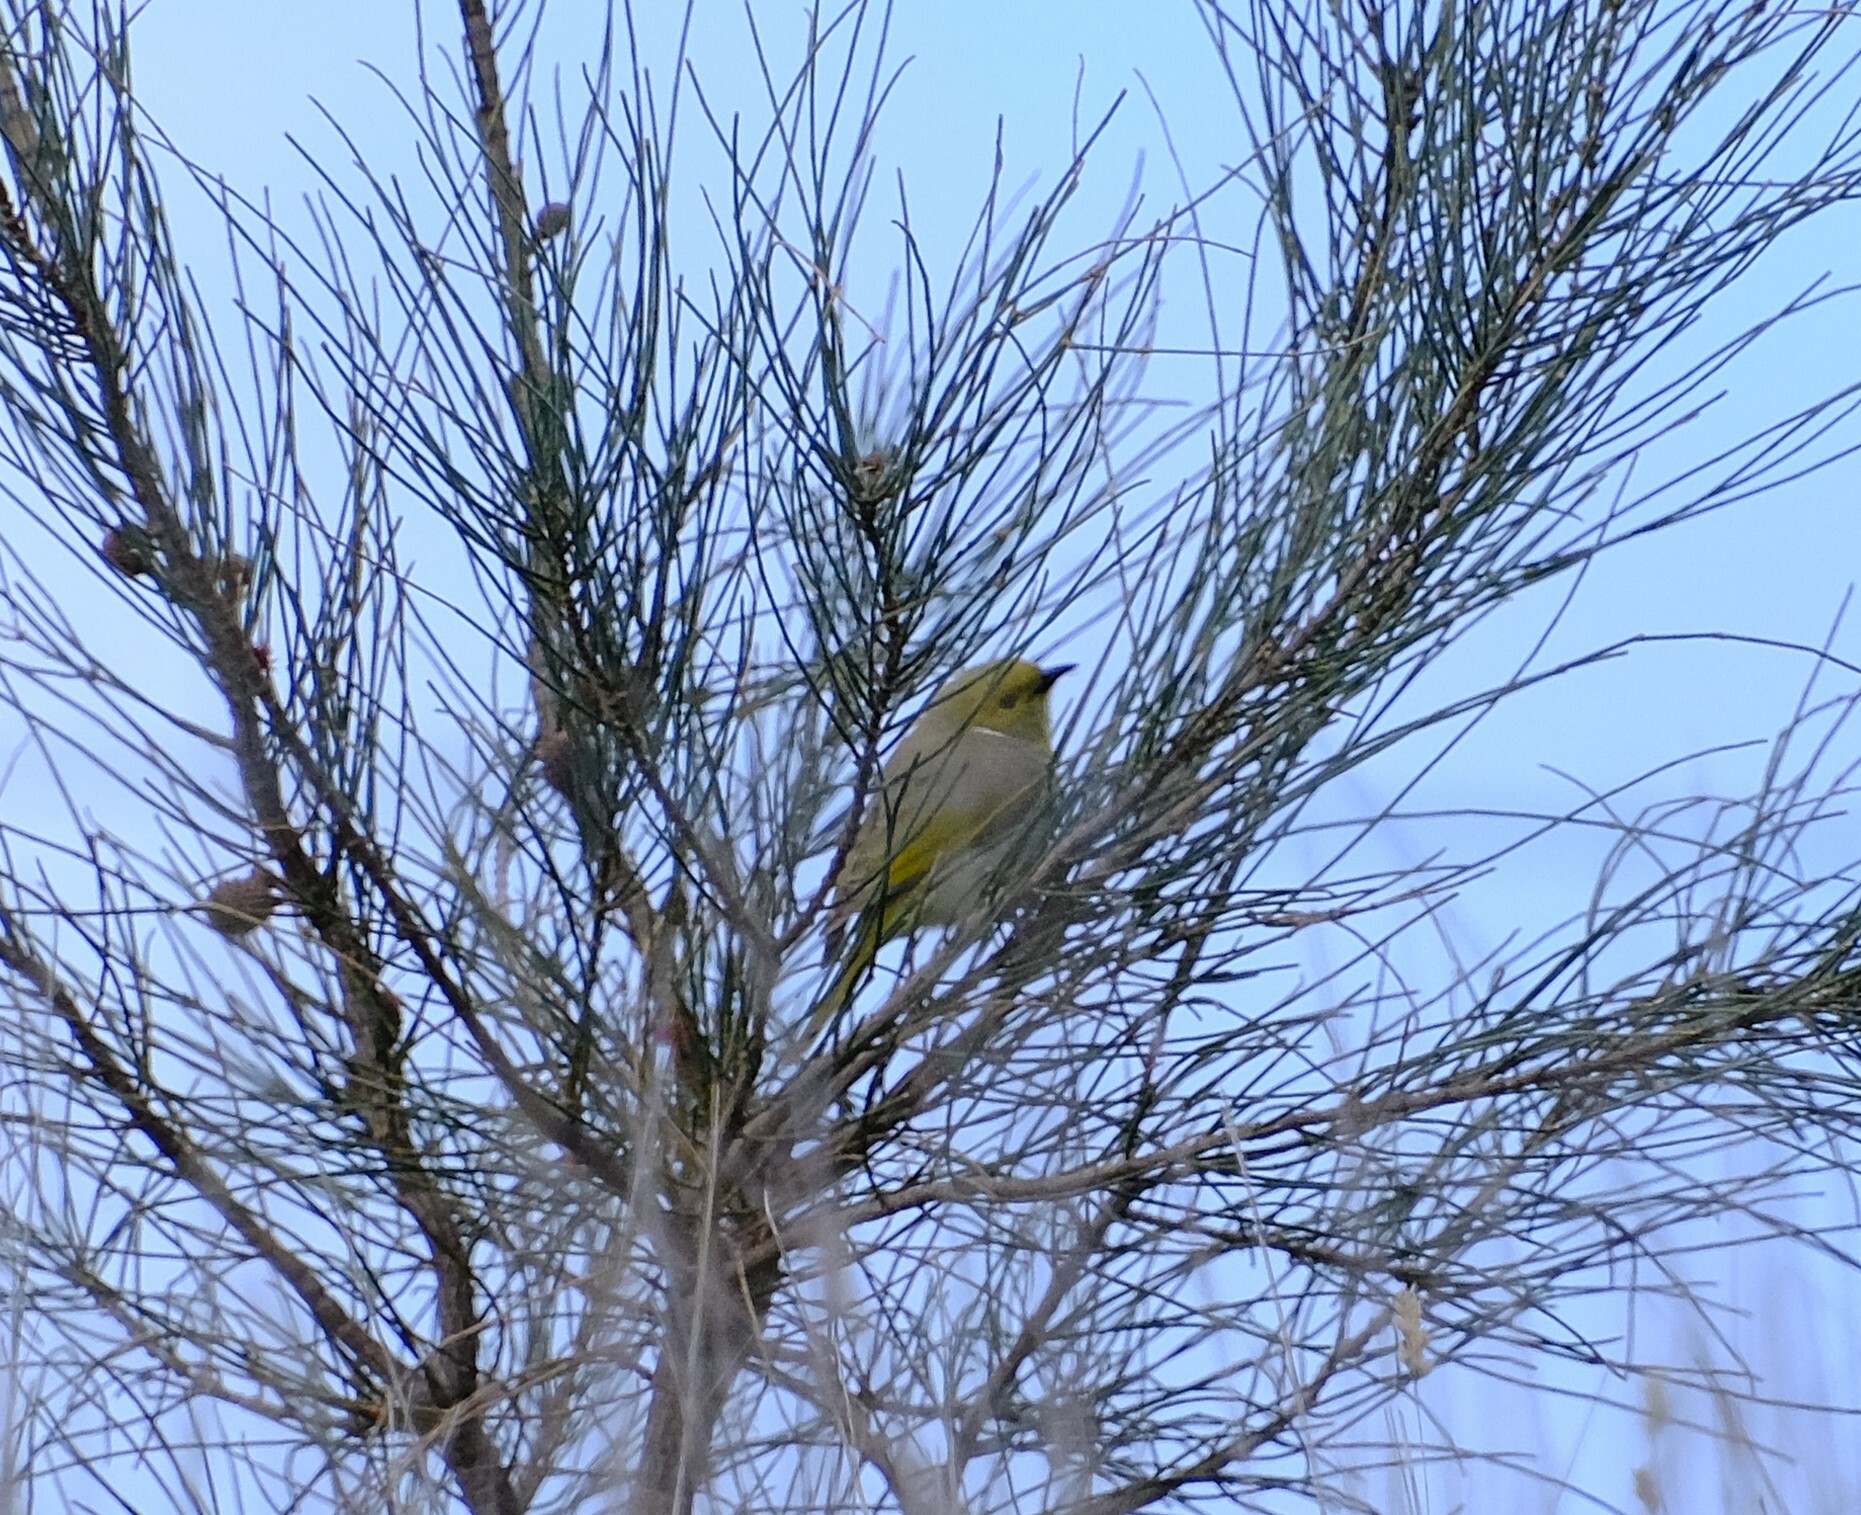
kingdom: Animalia
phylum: Chordata
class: Aves
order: Passeriformes
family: Meliphagidae
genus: Ptilotula
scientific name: Ptilotula penicillata
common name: White-plumed honeyeater
